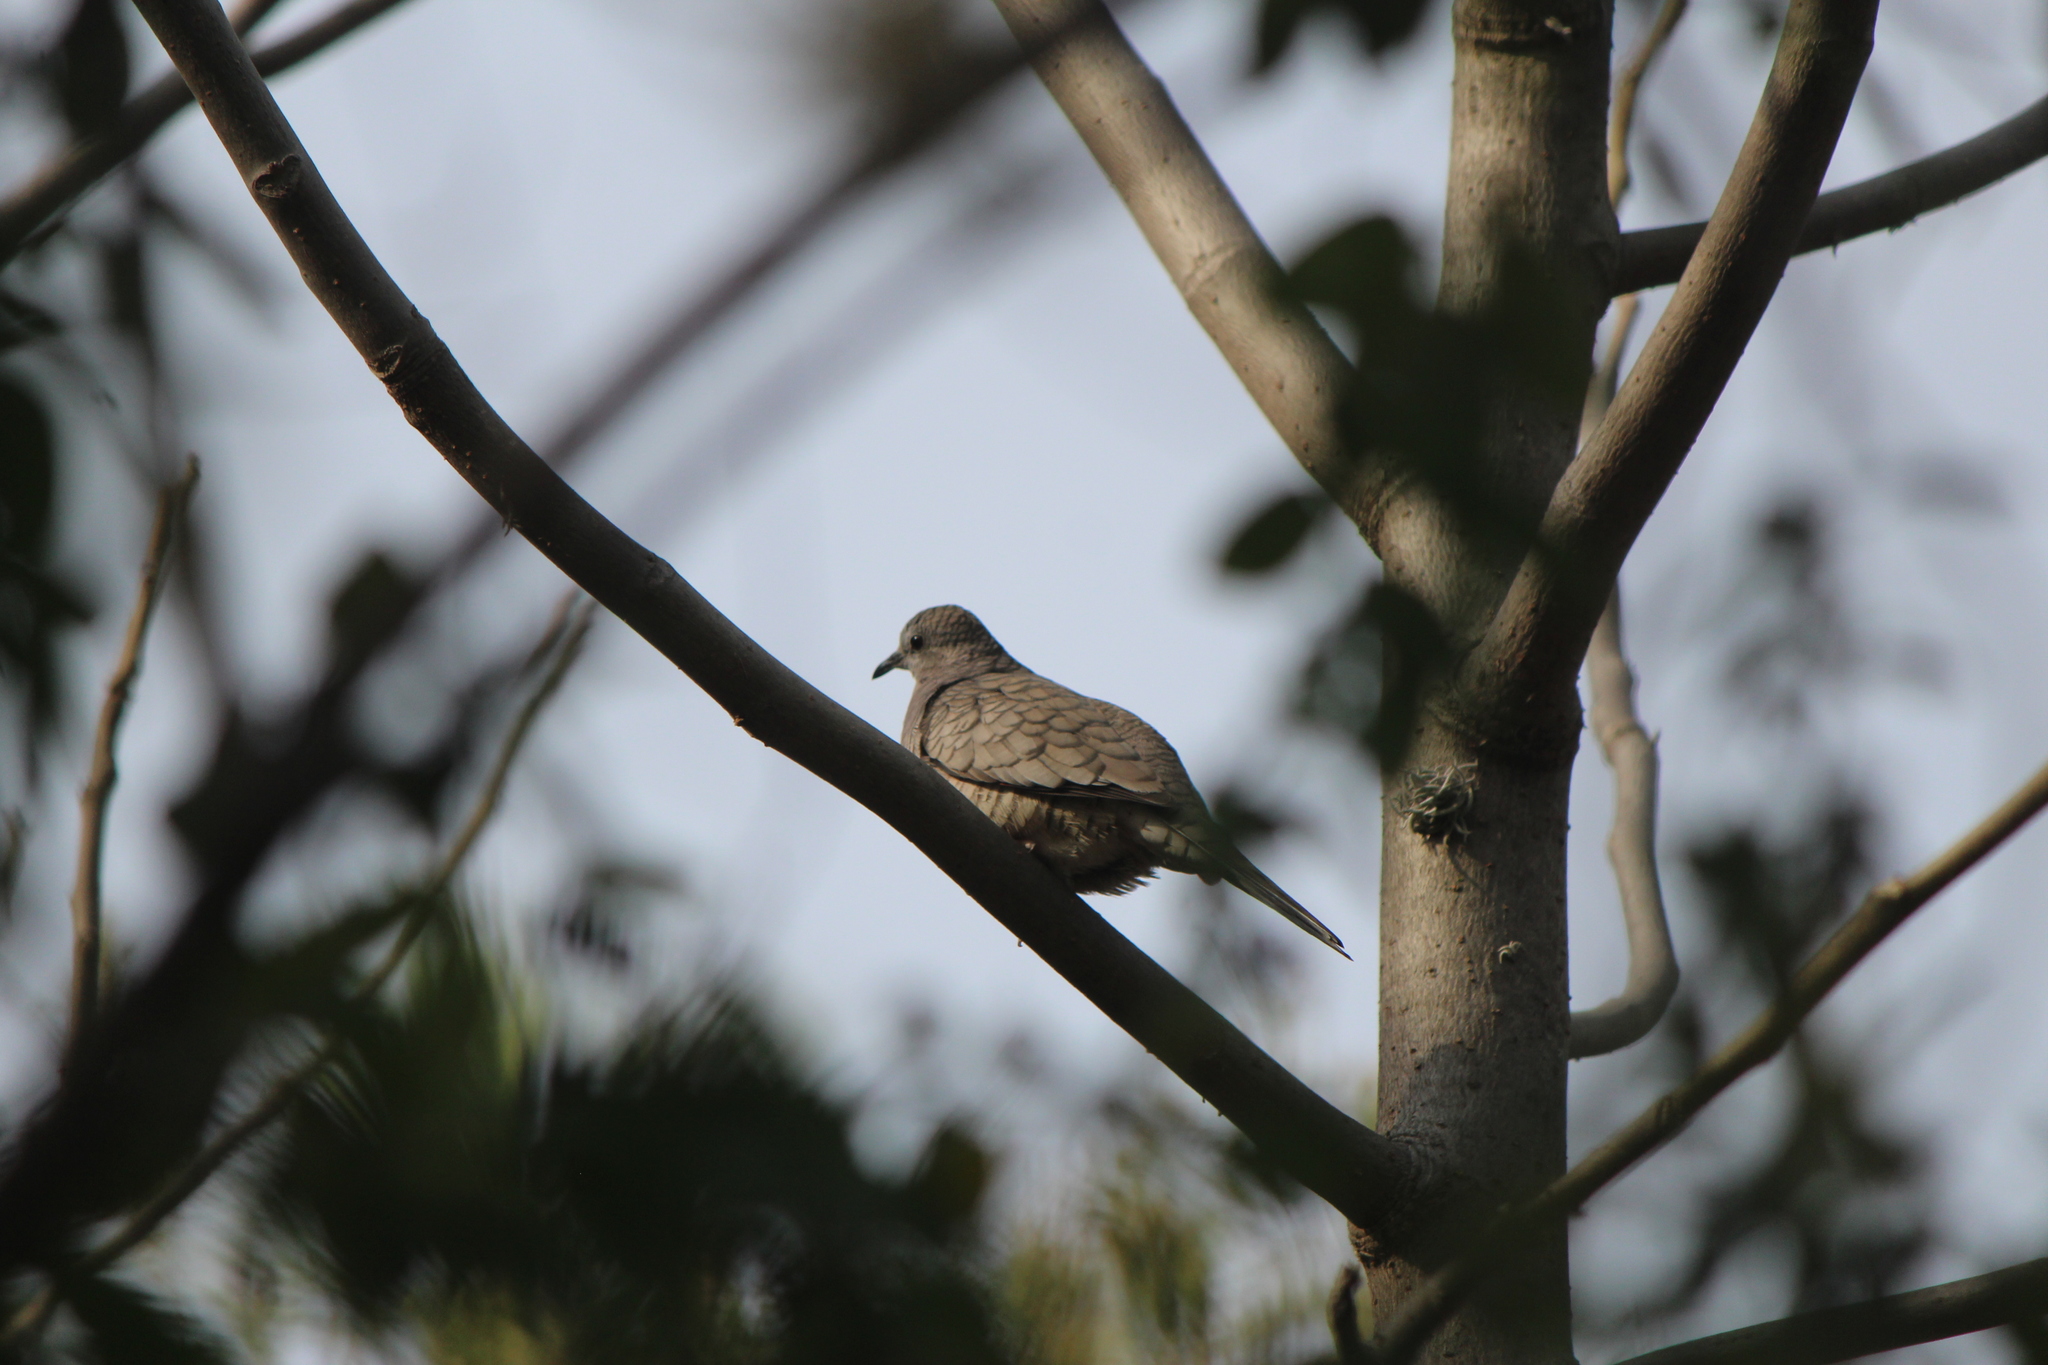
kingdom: Animalia
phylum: Chordata
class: Aves
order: Columbiformes
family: Columbidae
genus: Columbina
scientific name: Columbina inca
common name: Inca dove
